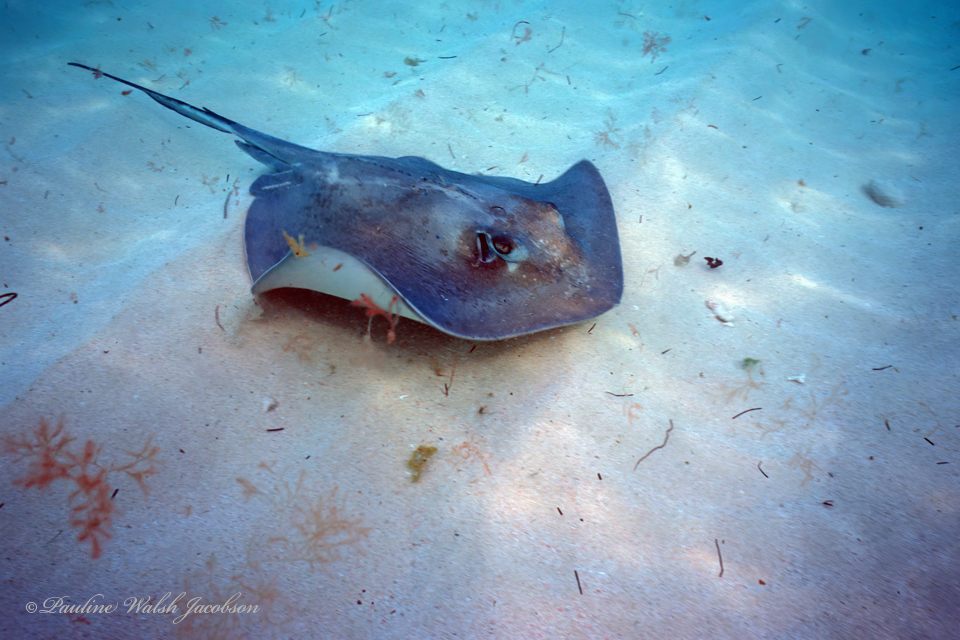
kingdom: Animalia
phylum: Chordata
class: Elasmobranchii
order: Myliobatiformes
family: Dasyatidae
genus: Hypanus
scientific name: Hypanus americanus
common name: Southern stingray
